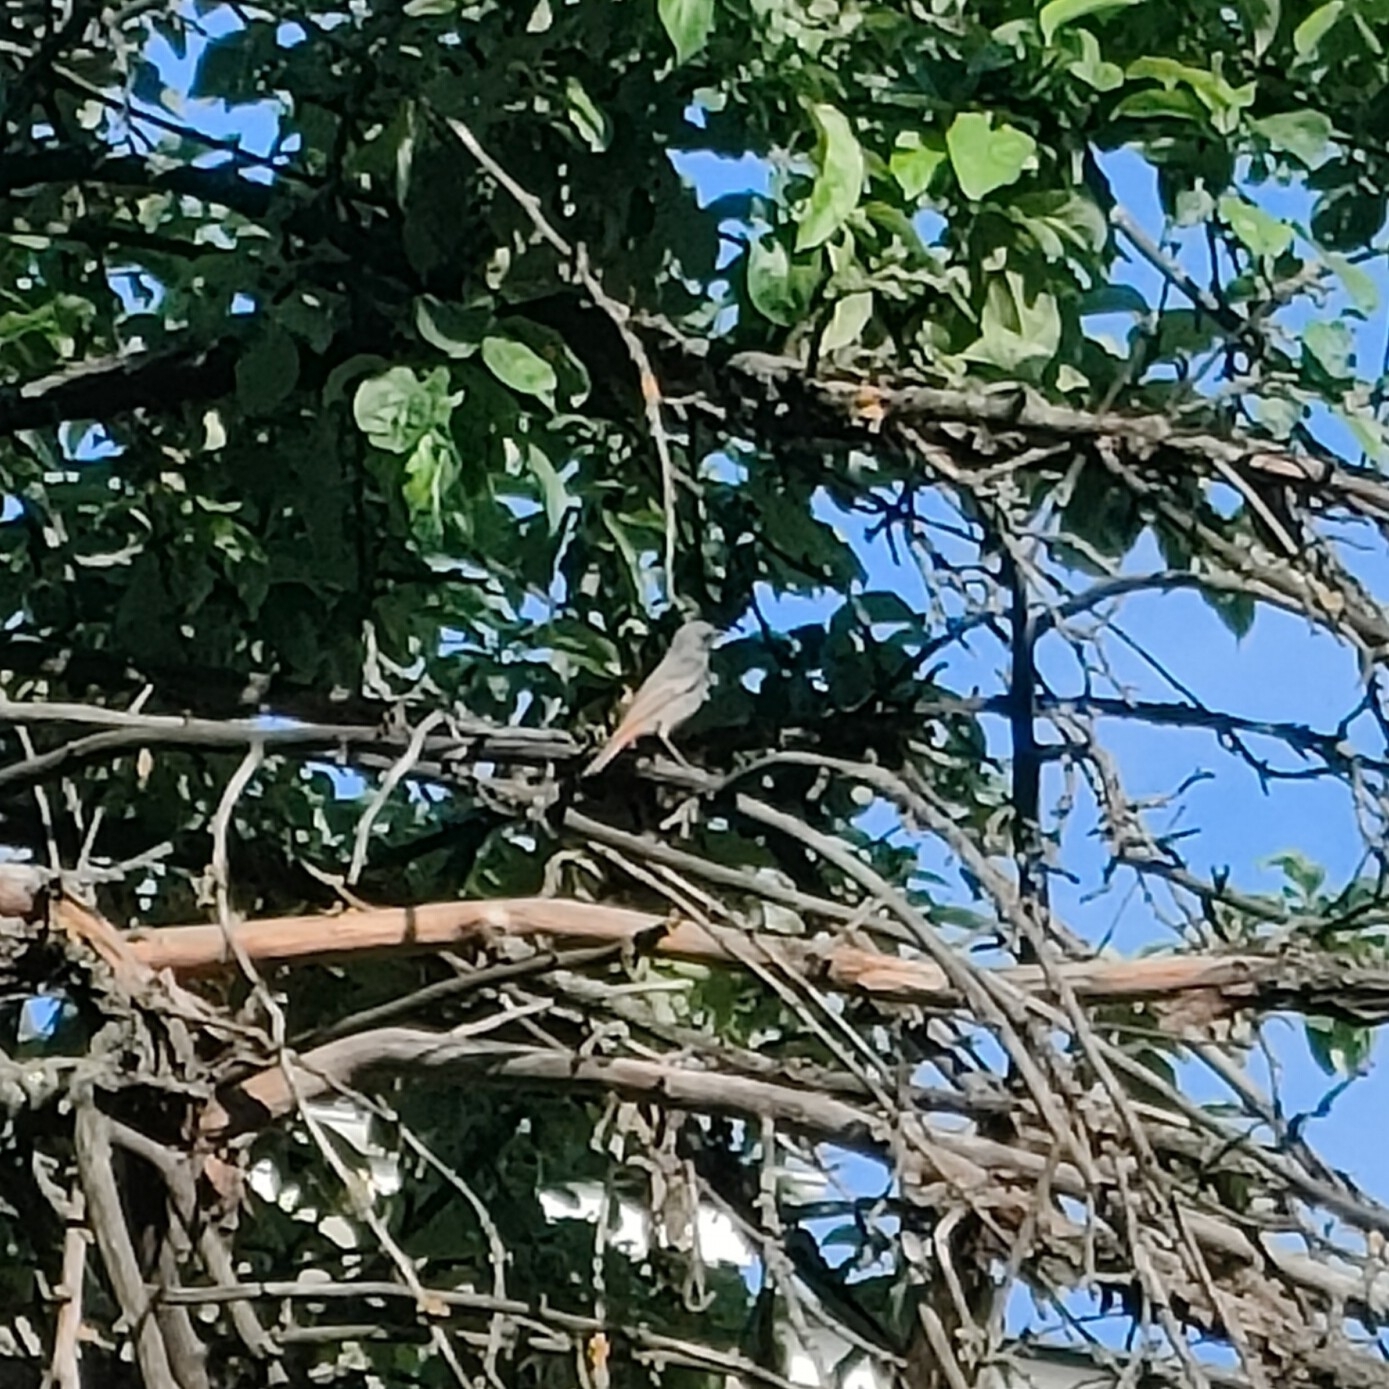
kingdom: Animalia
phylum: Chordata
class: Aves
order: Passeriformes
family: Muscicapidae
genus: Phoenicurus
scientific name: Phoenicurus ochruros
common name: Black redstart
